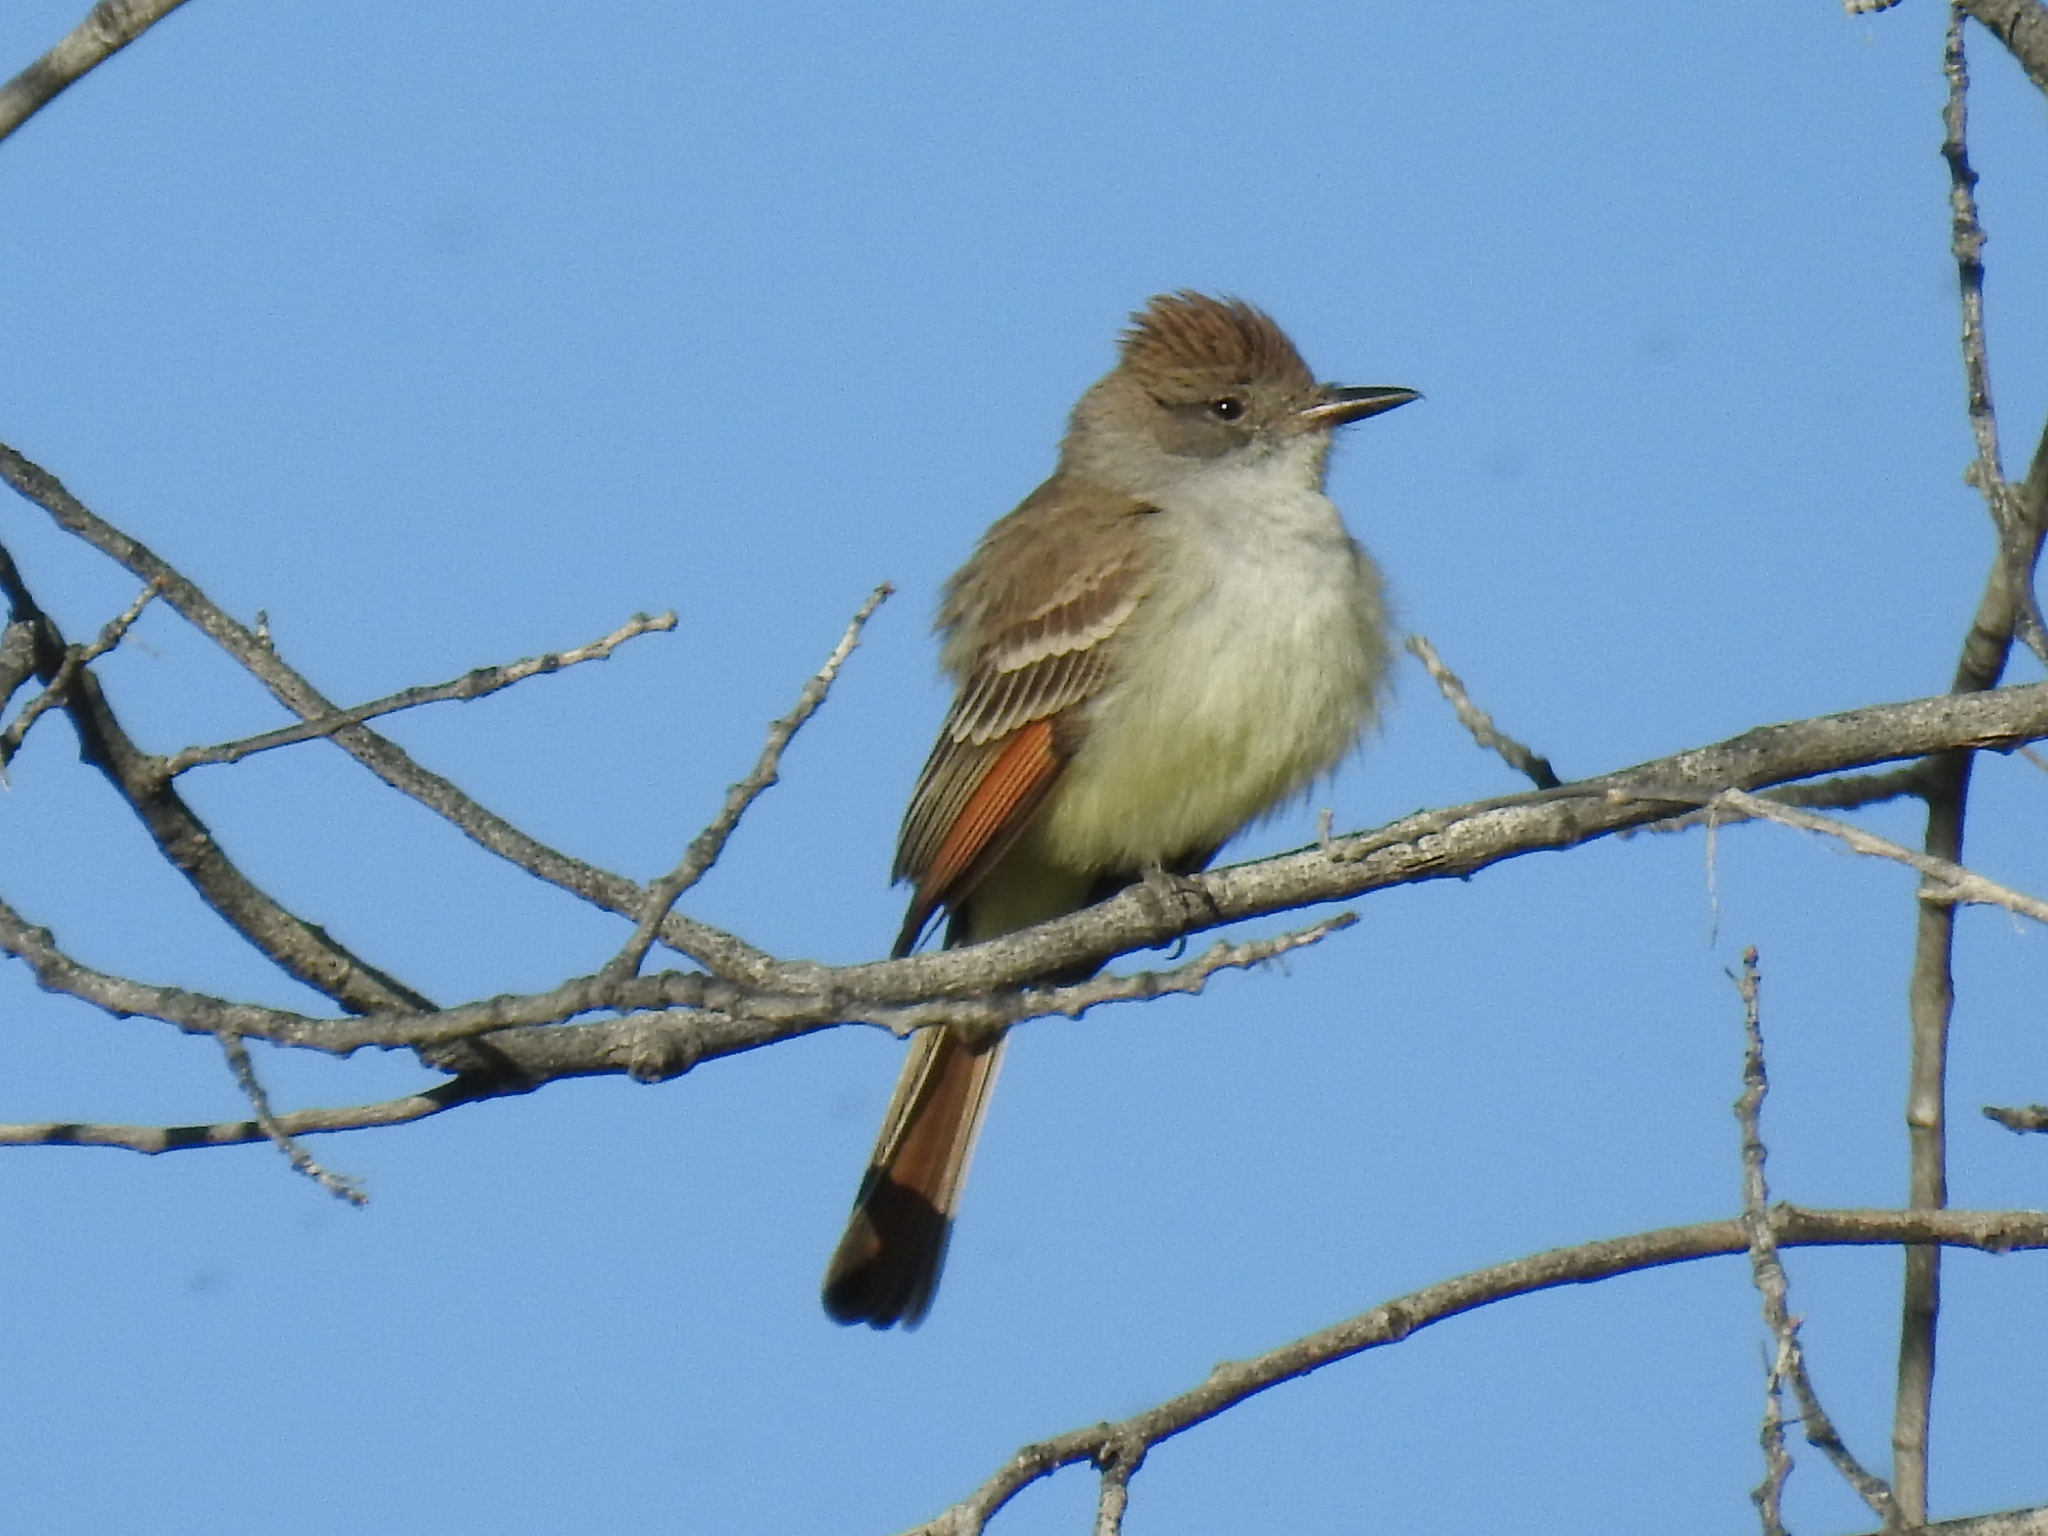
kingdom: Animalia
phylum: Chordata
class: Aves
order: Passeriformes
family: Tyrannidae
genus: Myiarchus
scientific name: Myiarchus cinerascens
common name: Ash-throated flycatcher
